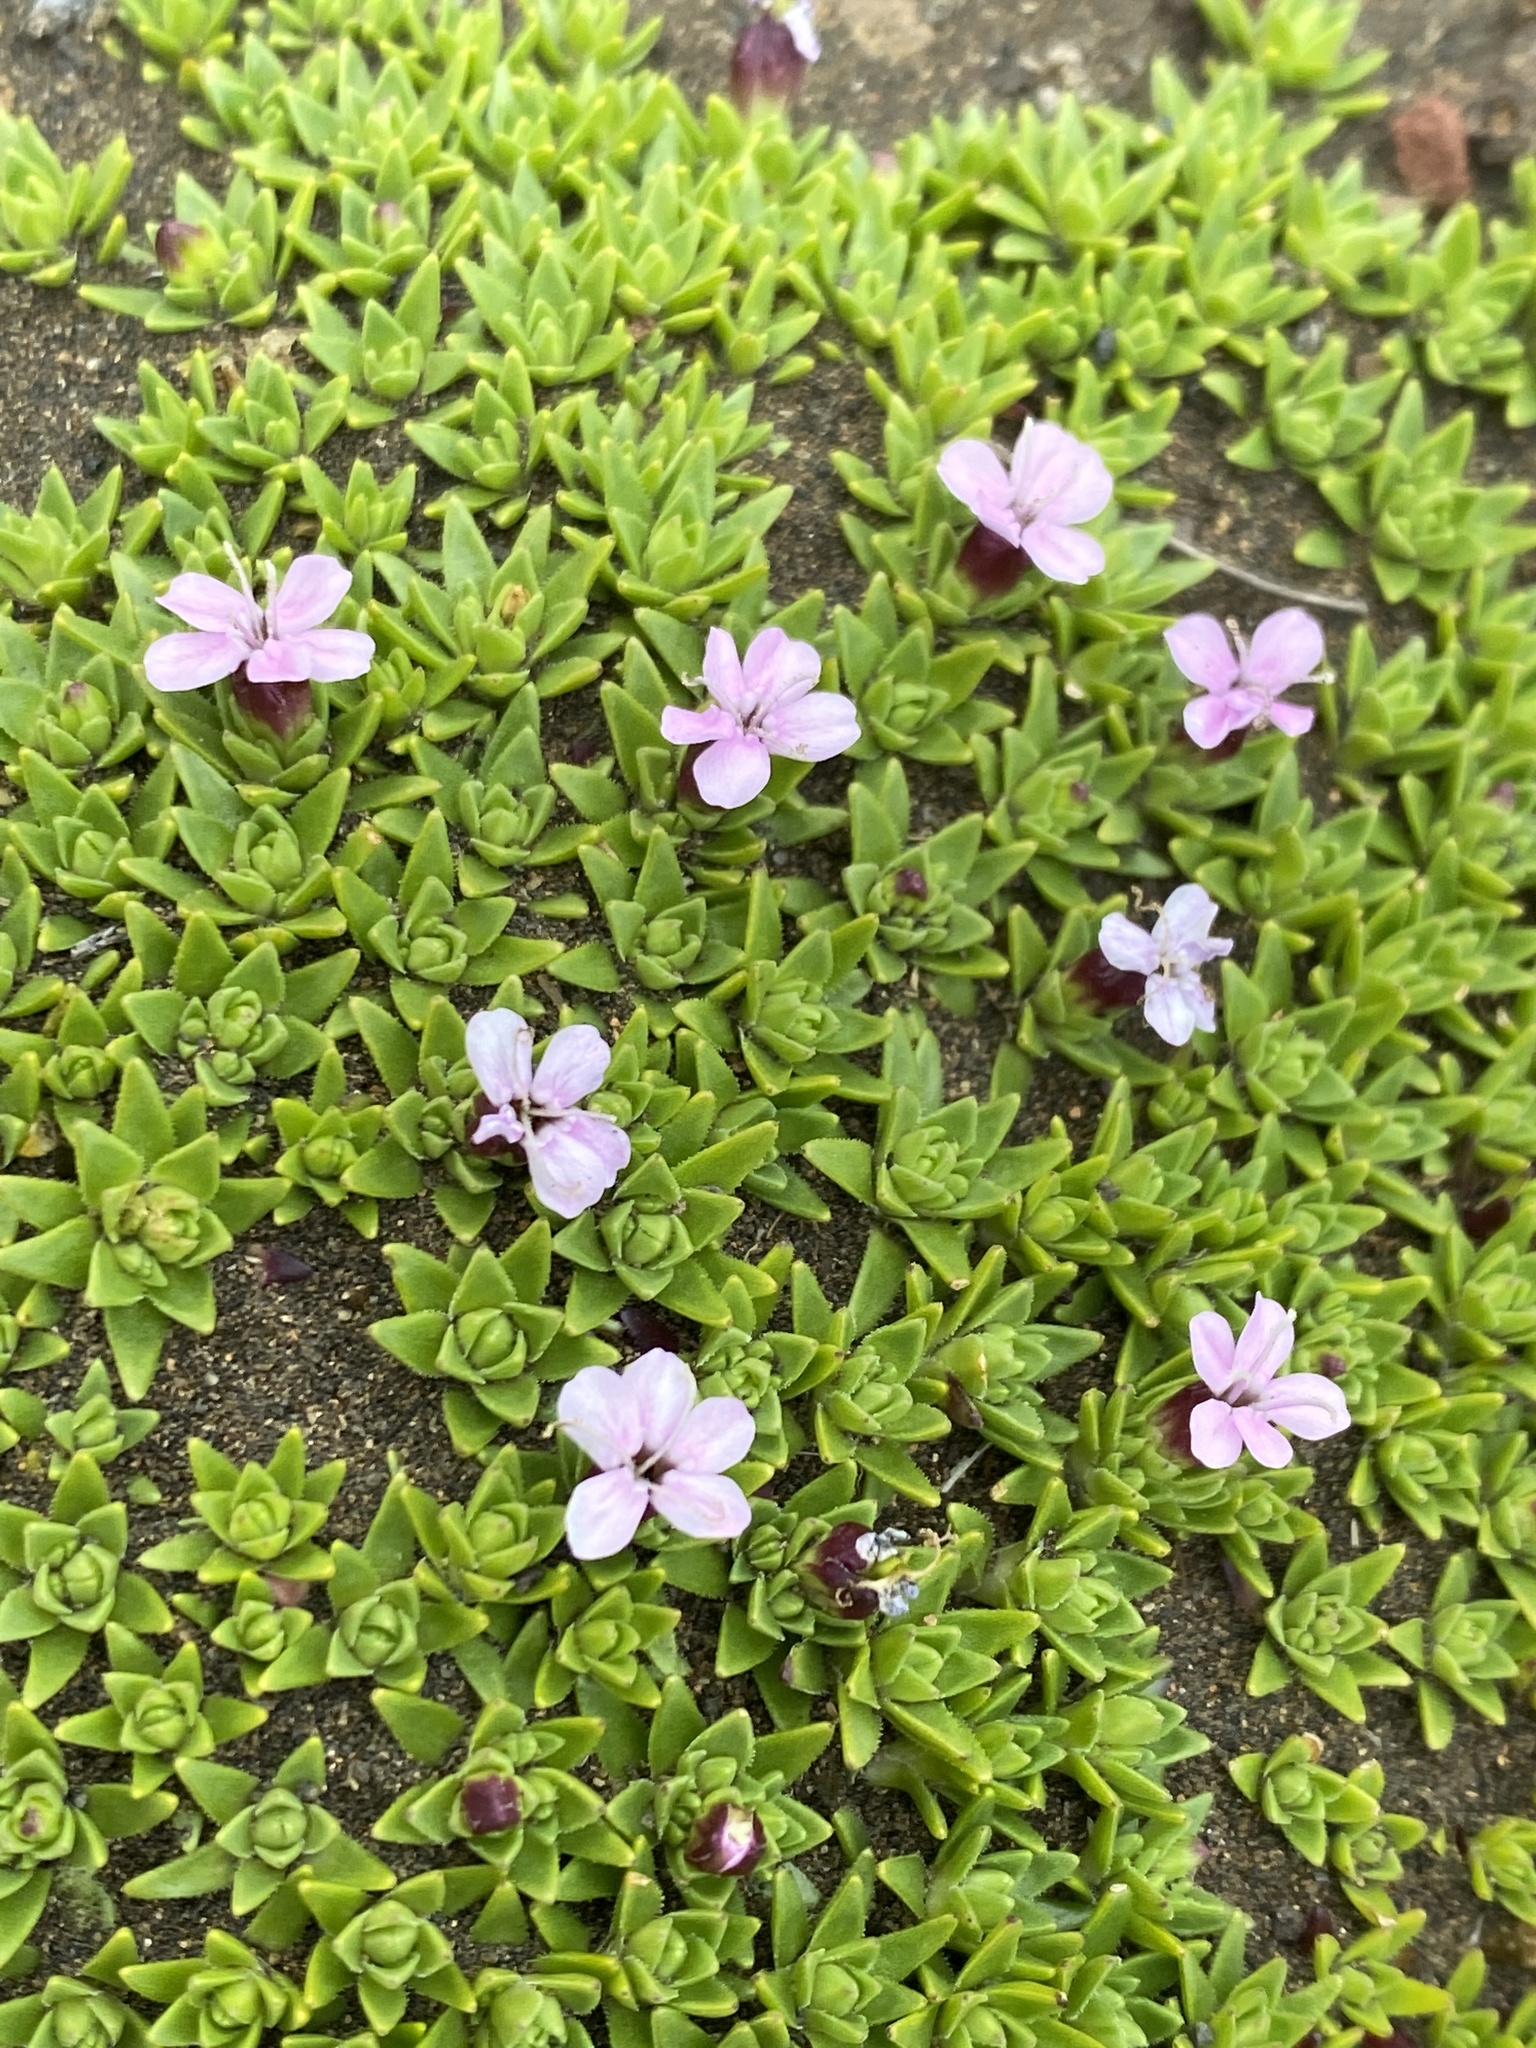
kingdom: Plantae
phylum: Tracheophyta
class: Magnoliopsida
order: Caryophyllales
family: Caryophyllaceae
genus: Silene
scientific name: Silene acaulis
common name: Moss campion
